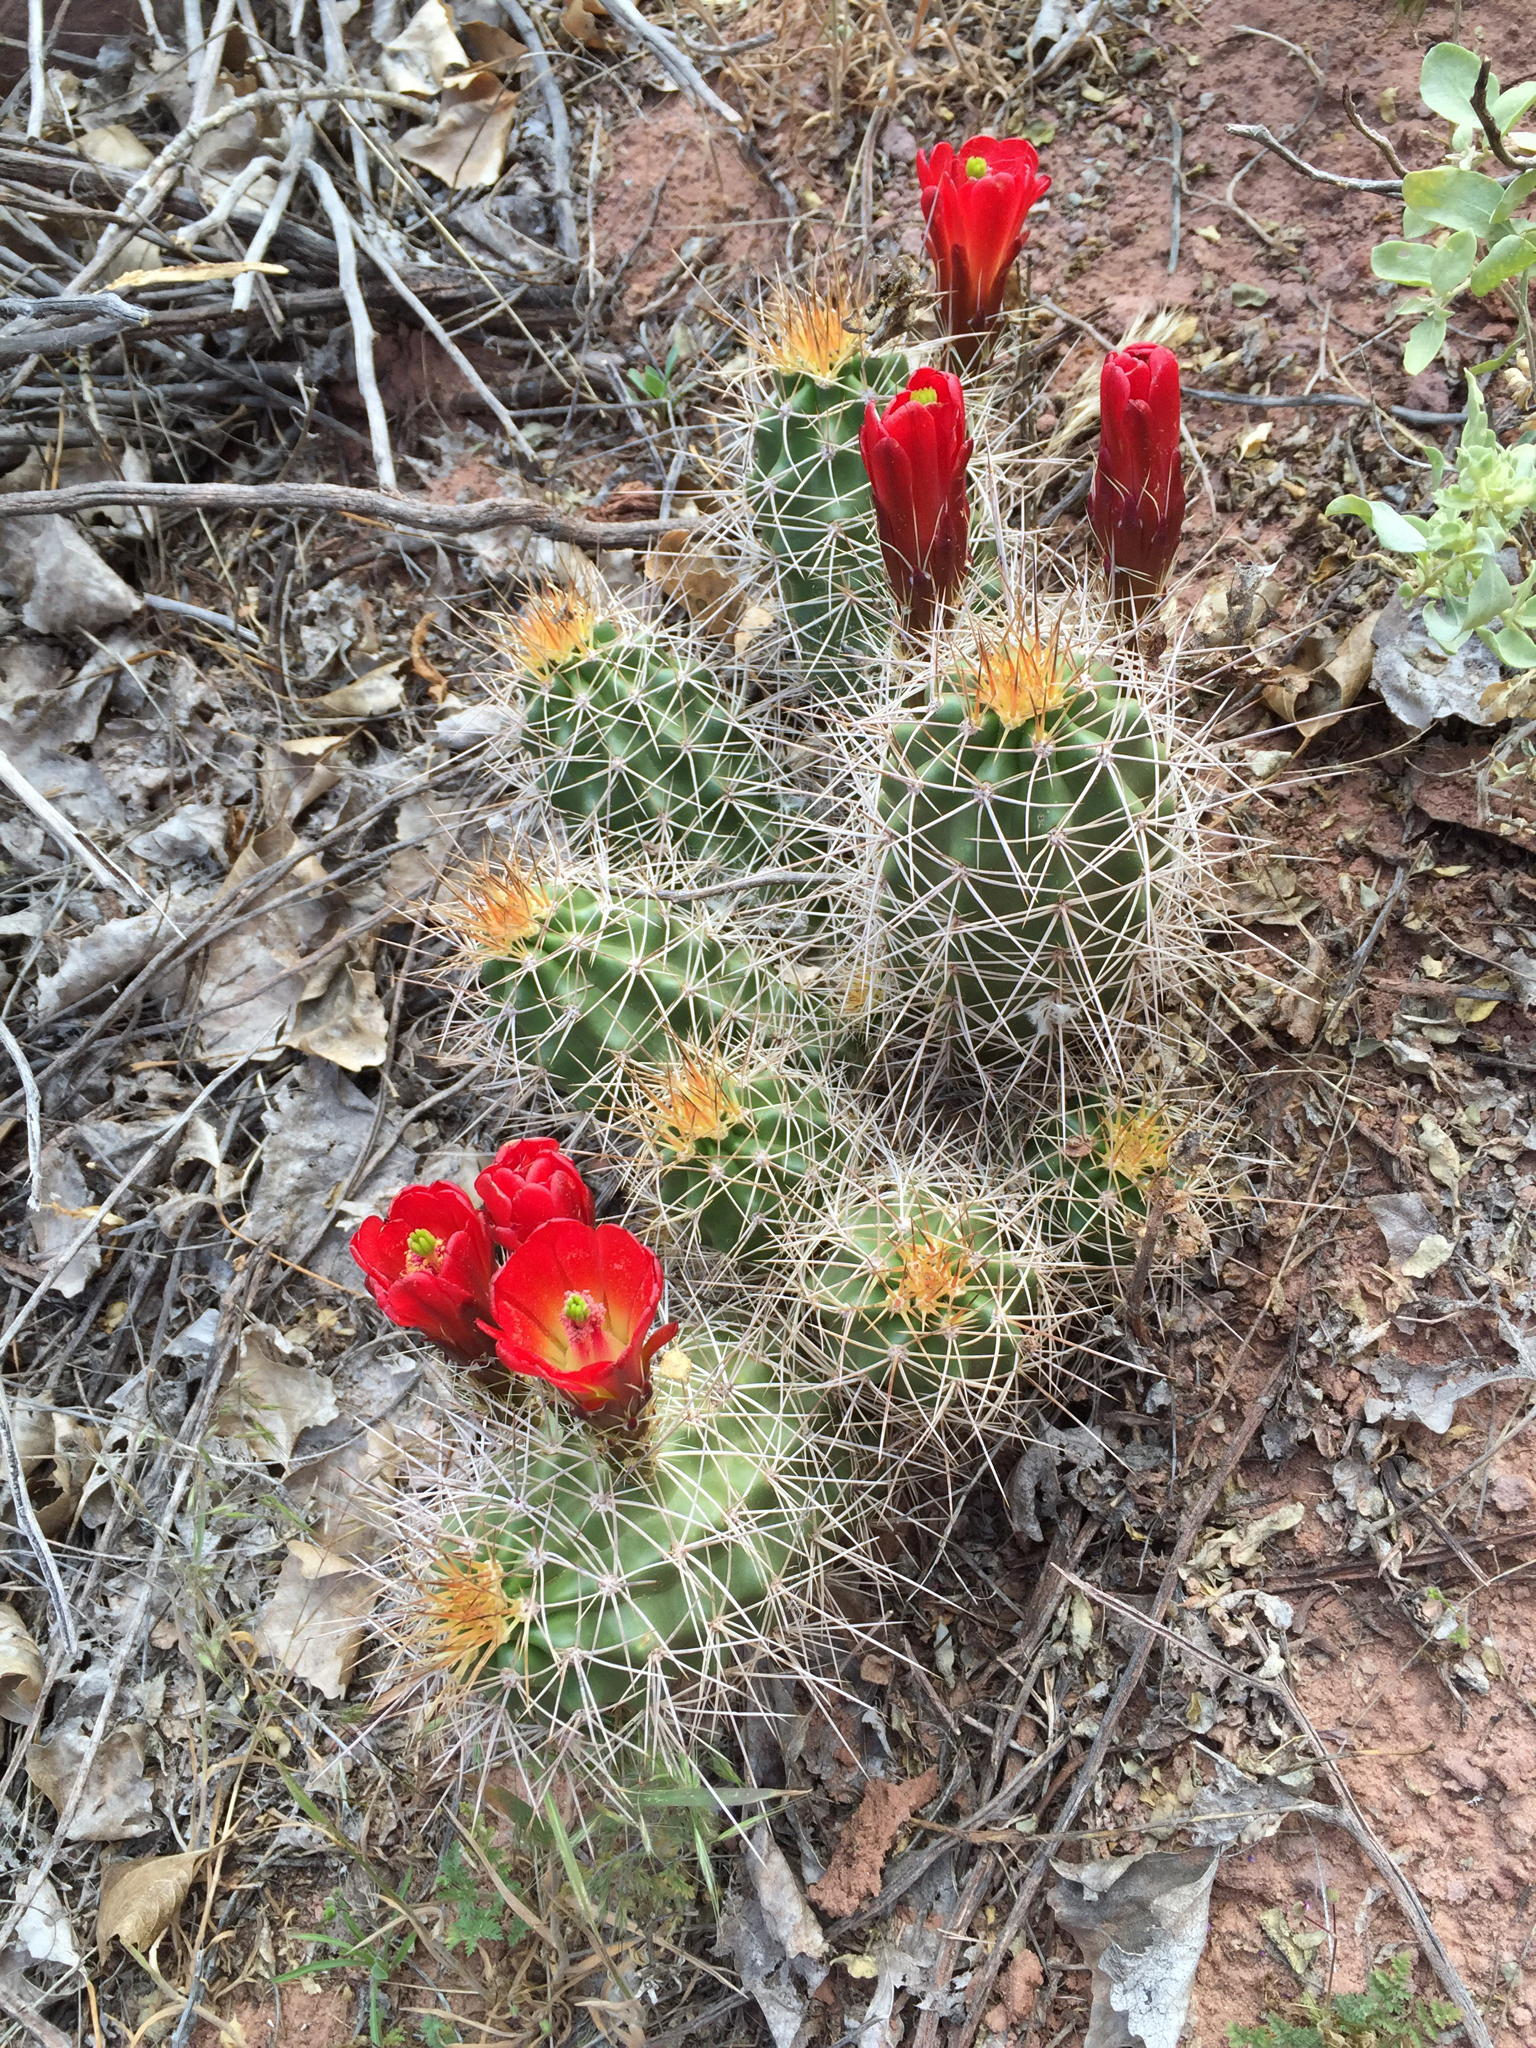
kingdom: Plantae
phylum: Tracheophyta
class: Magnoliopsida
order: Caryophyllales
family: Cactaceae
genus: Echinocereus
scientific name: Echinocereus triglochidiatus
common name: Claretcup hedgehog
